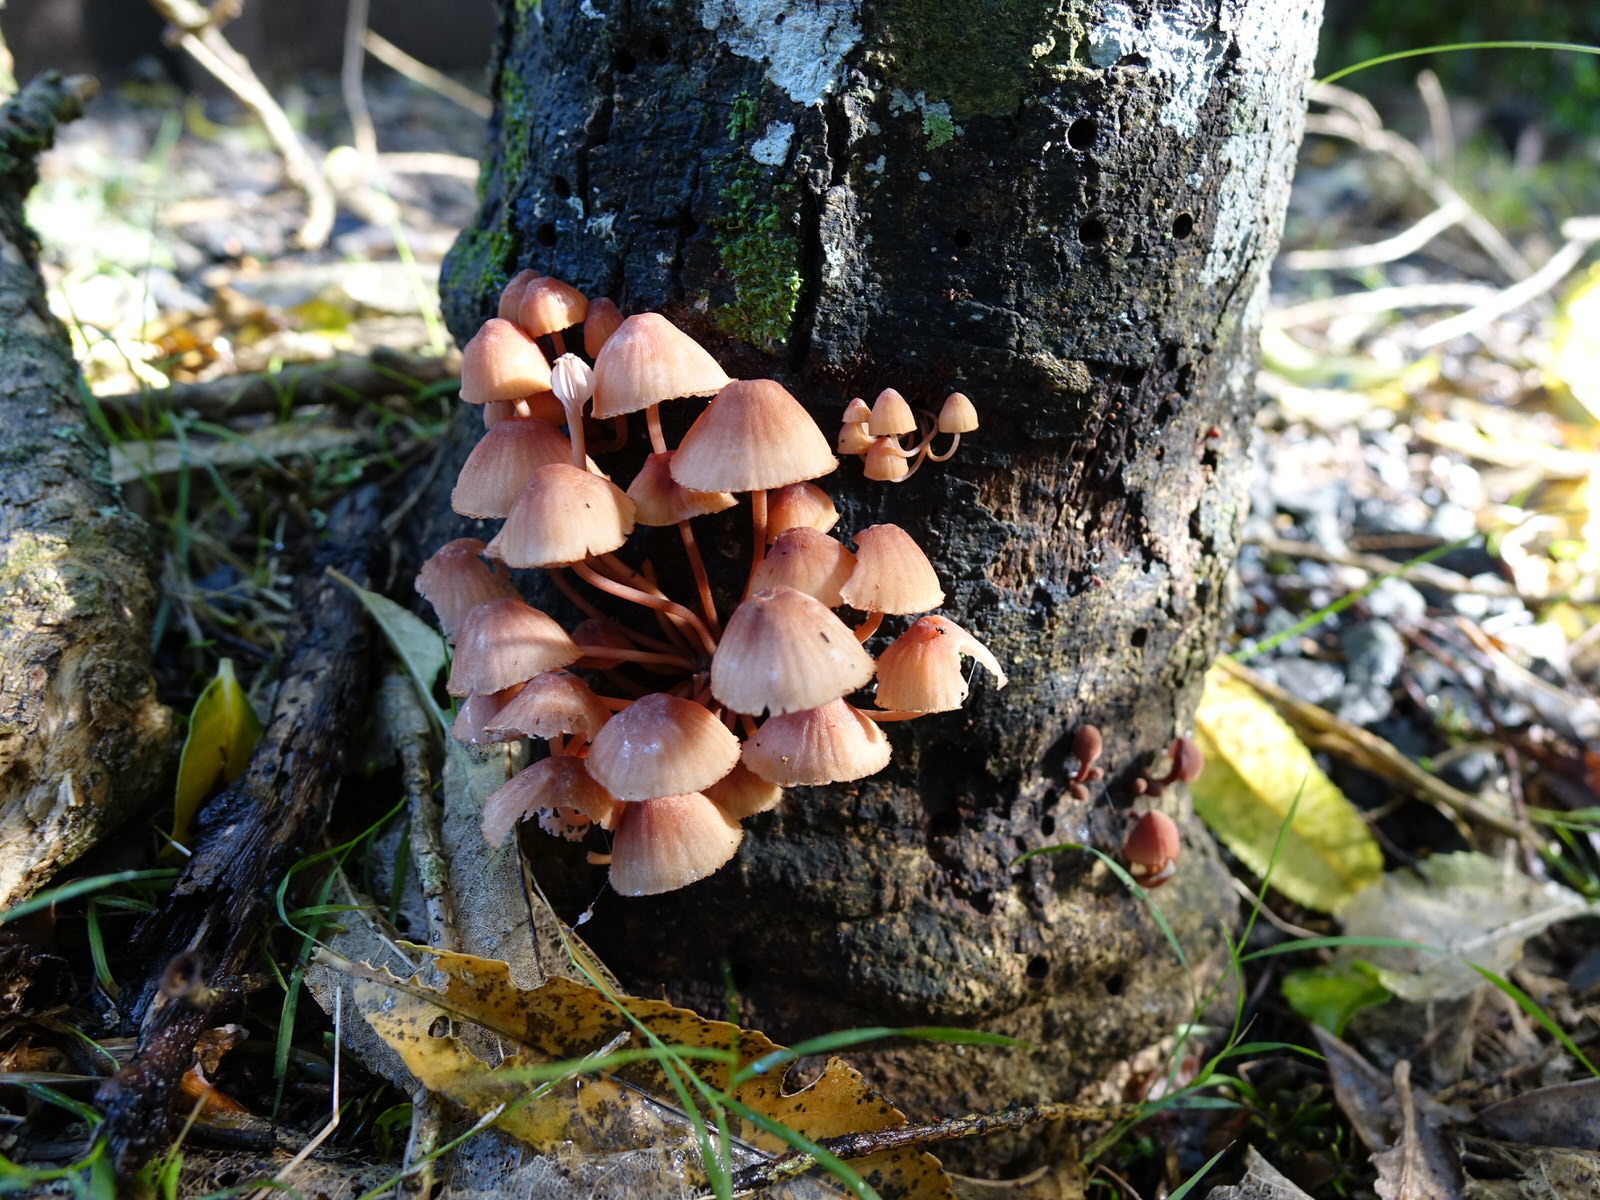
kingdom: Fungi
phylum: Basidiomycota
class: Agaricomycetes
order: Agaricales
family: Mycenaceae
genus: Mycena
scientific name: Mycena parsonsii
